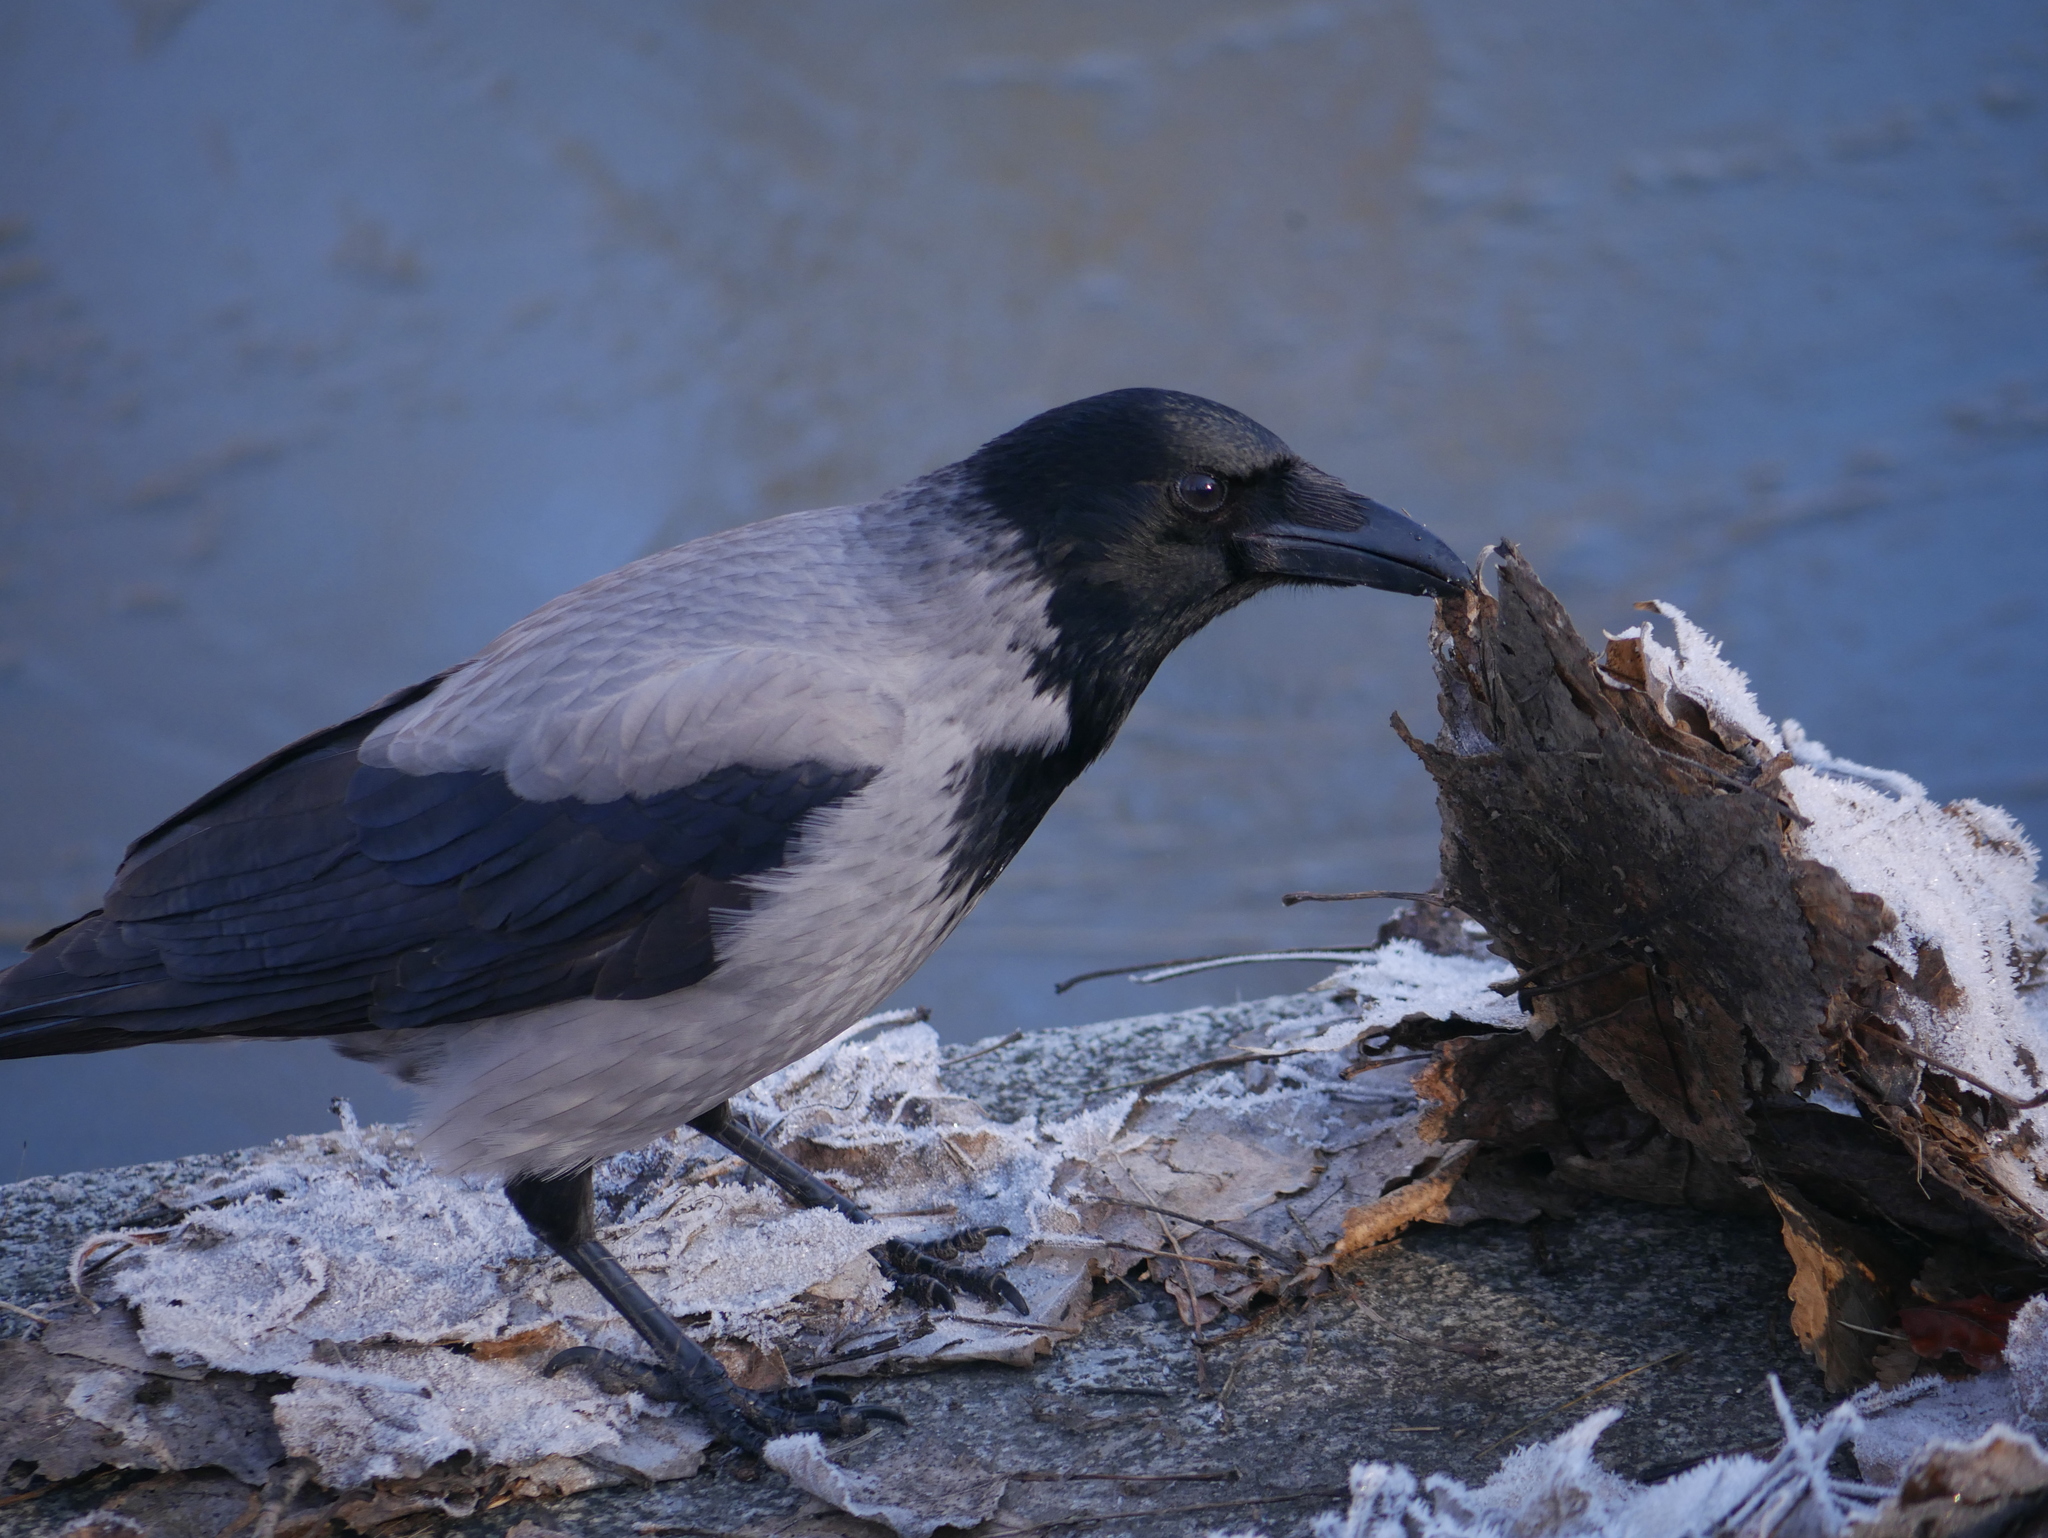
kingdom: Animalia
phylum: Chordata
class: Aves
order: Passeriformes
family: Corvidae
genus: Corvus
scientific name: Corvus cornix
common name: Hooded crow
